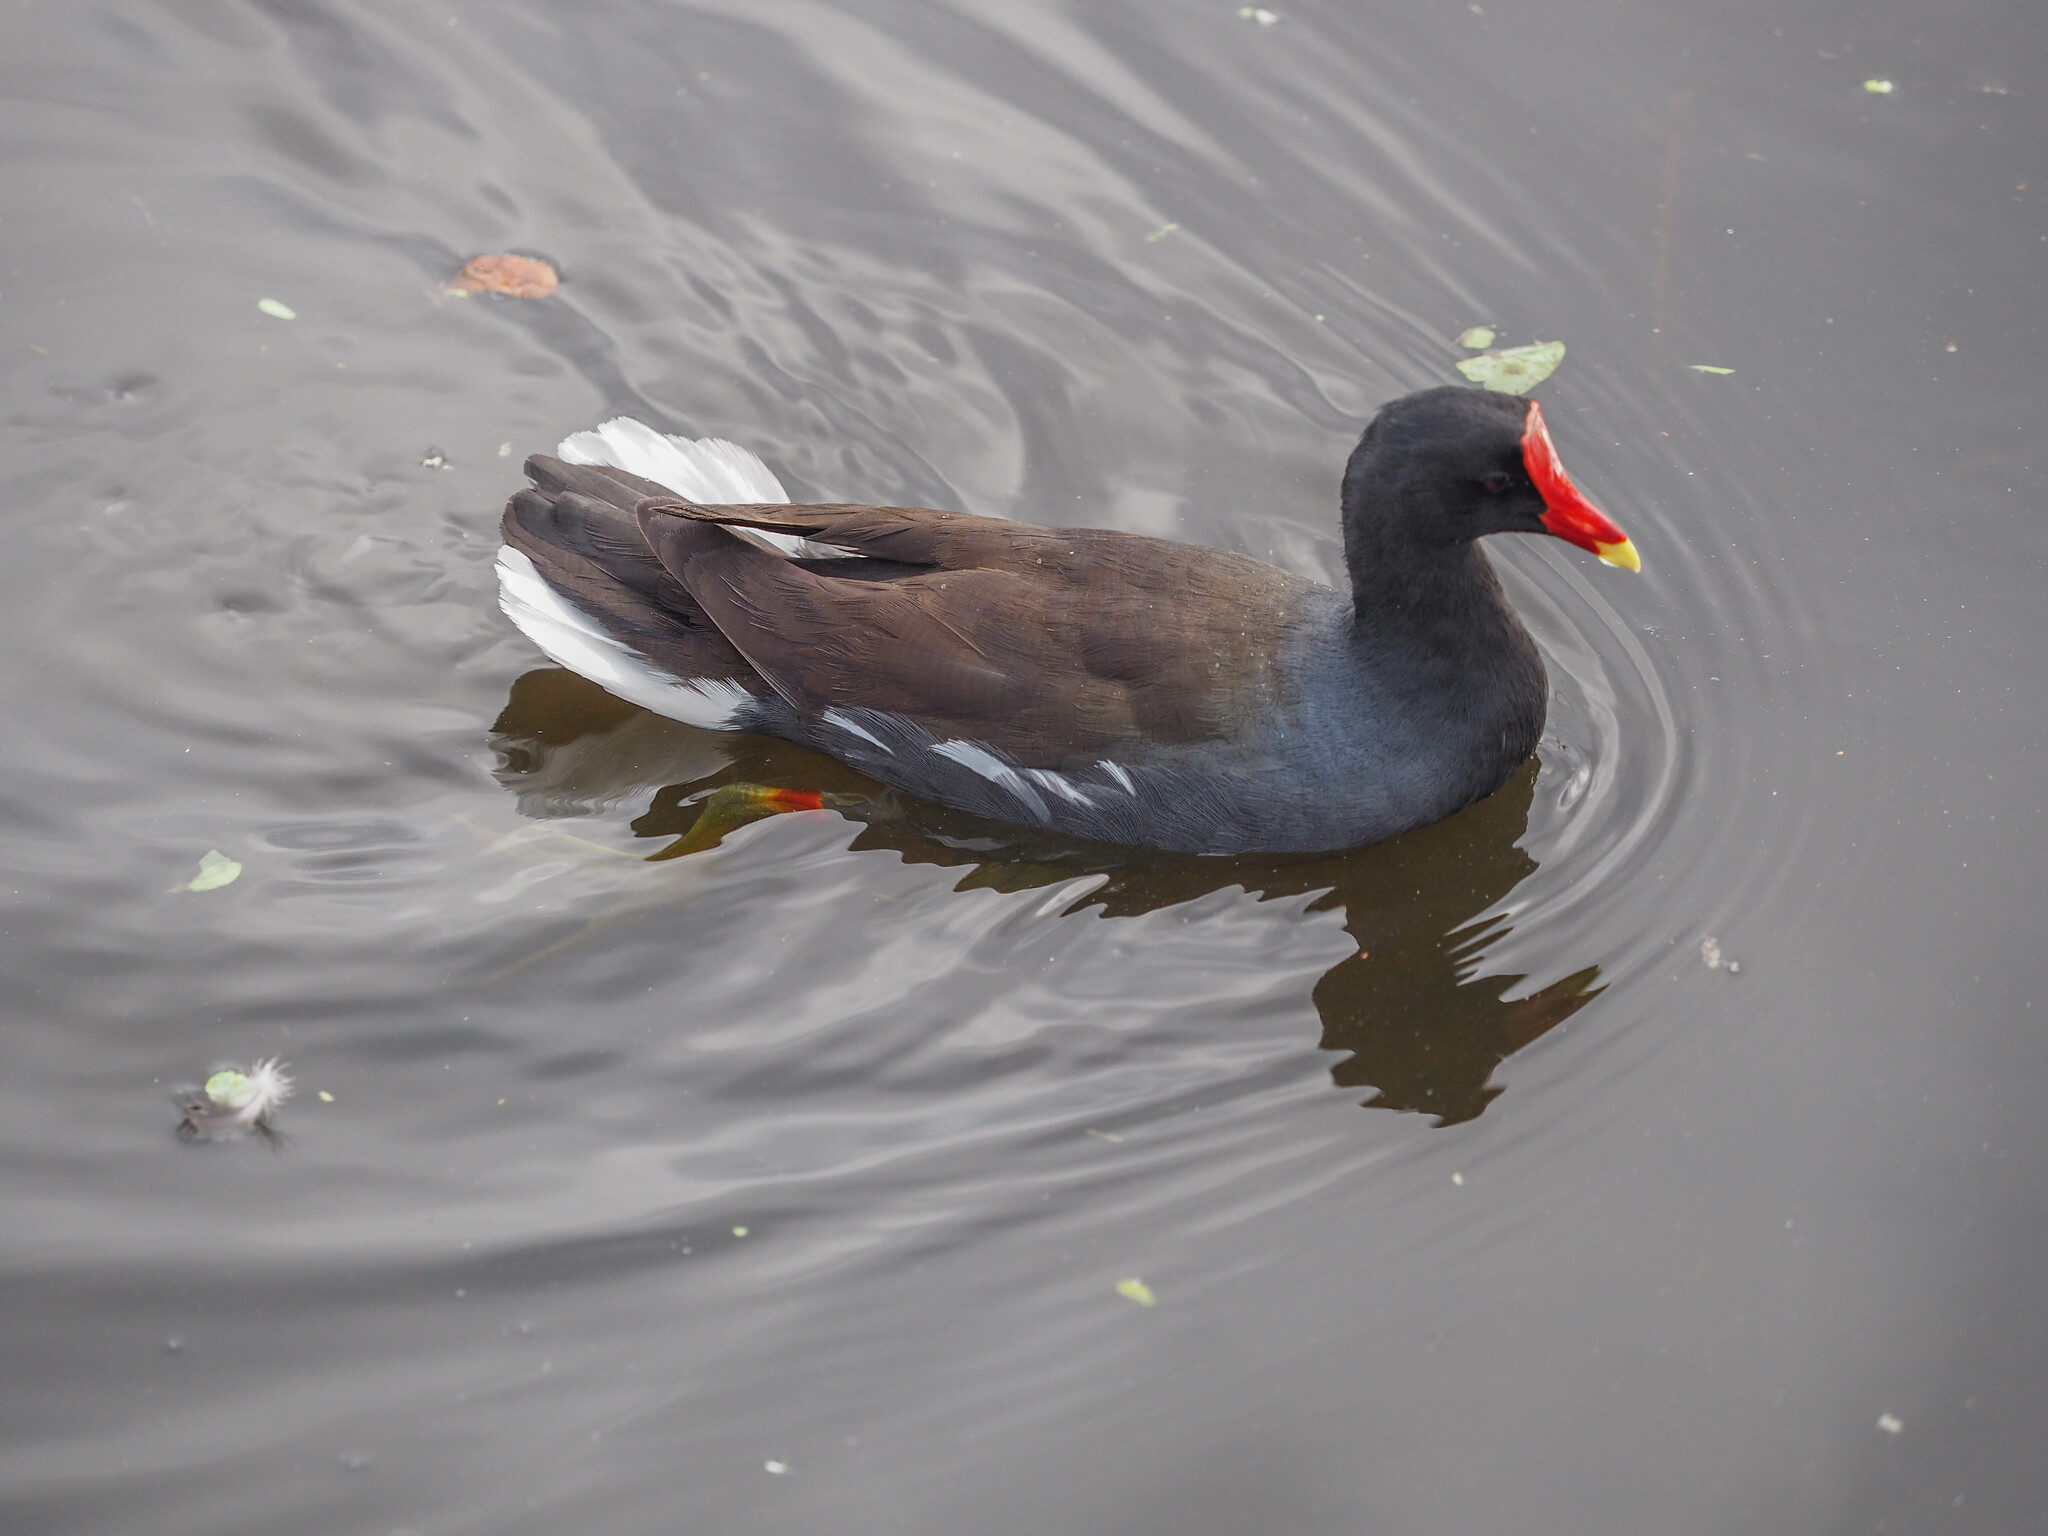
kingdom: Animalia
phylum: Chordata
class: Aves
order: Gruiformes
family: Rallidae
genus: Gallinula
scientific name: Gallinula chloropus
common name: Common moorhen
